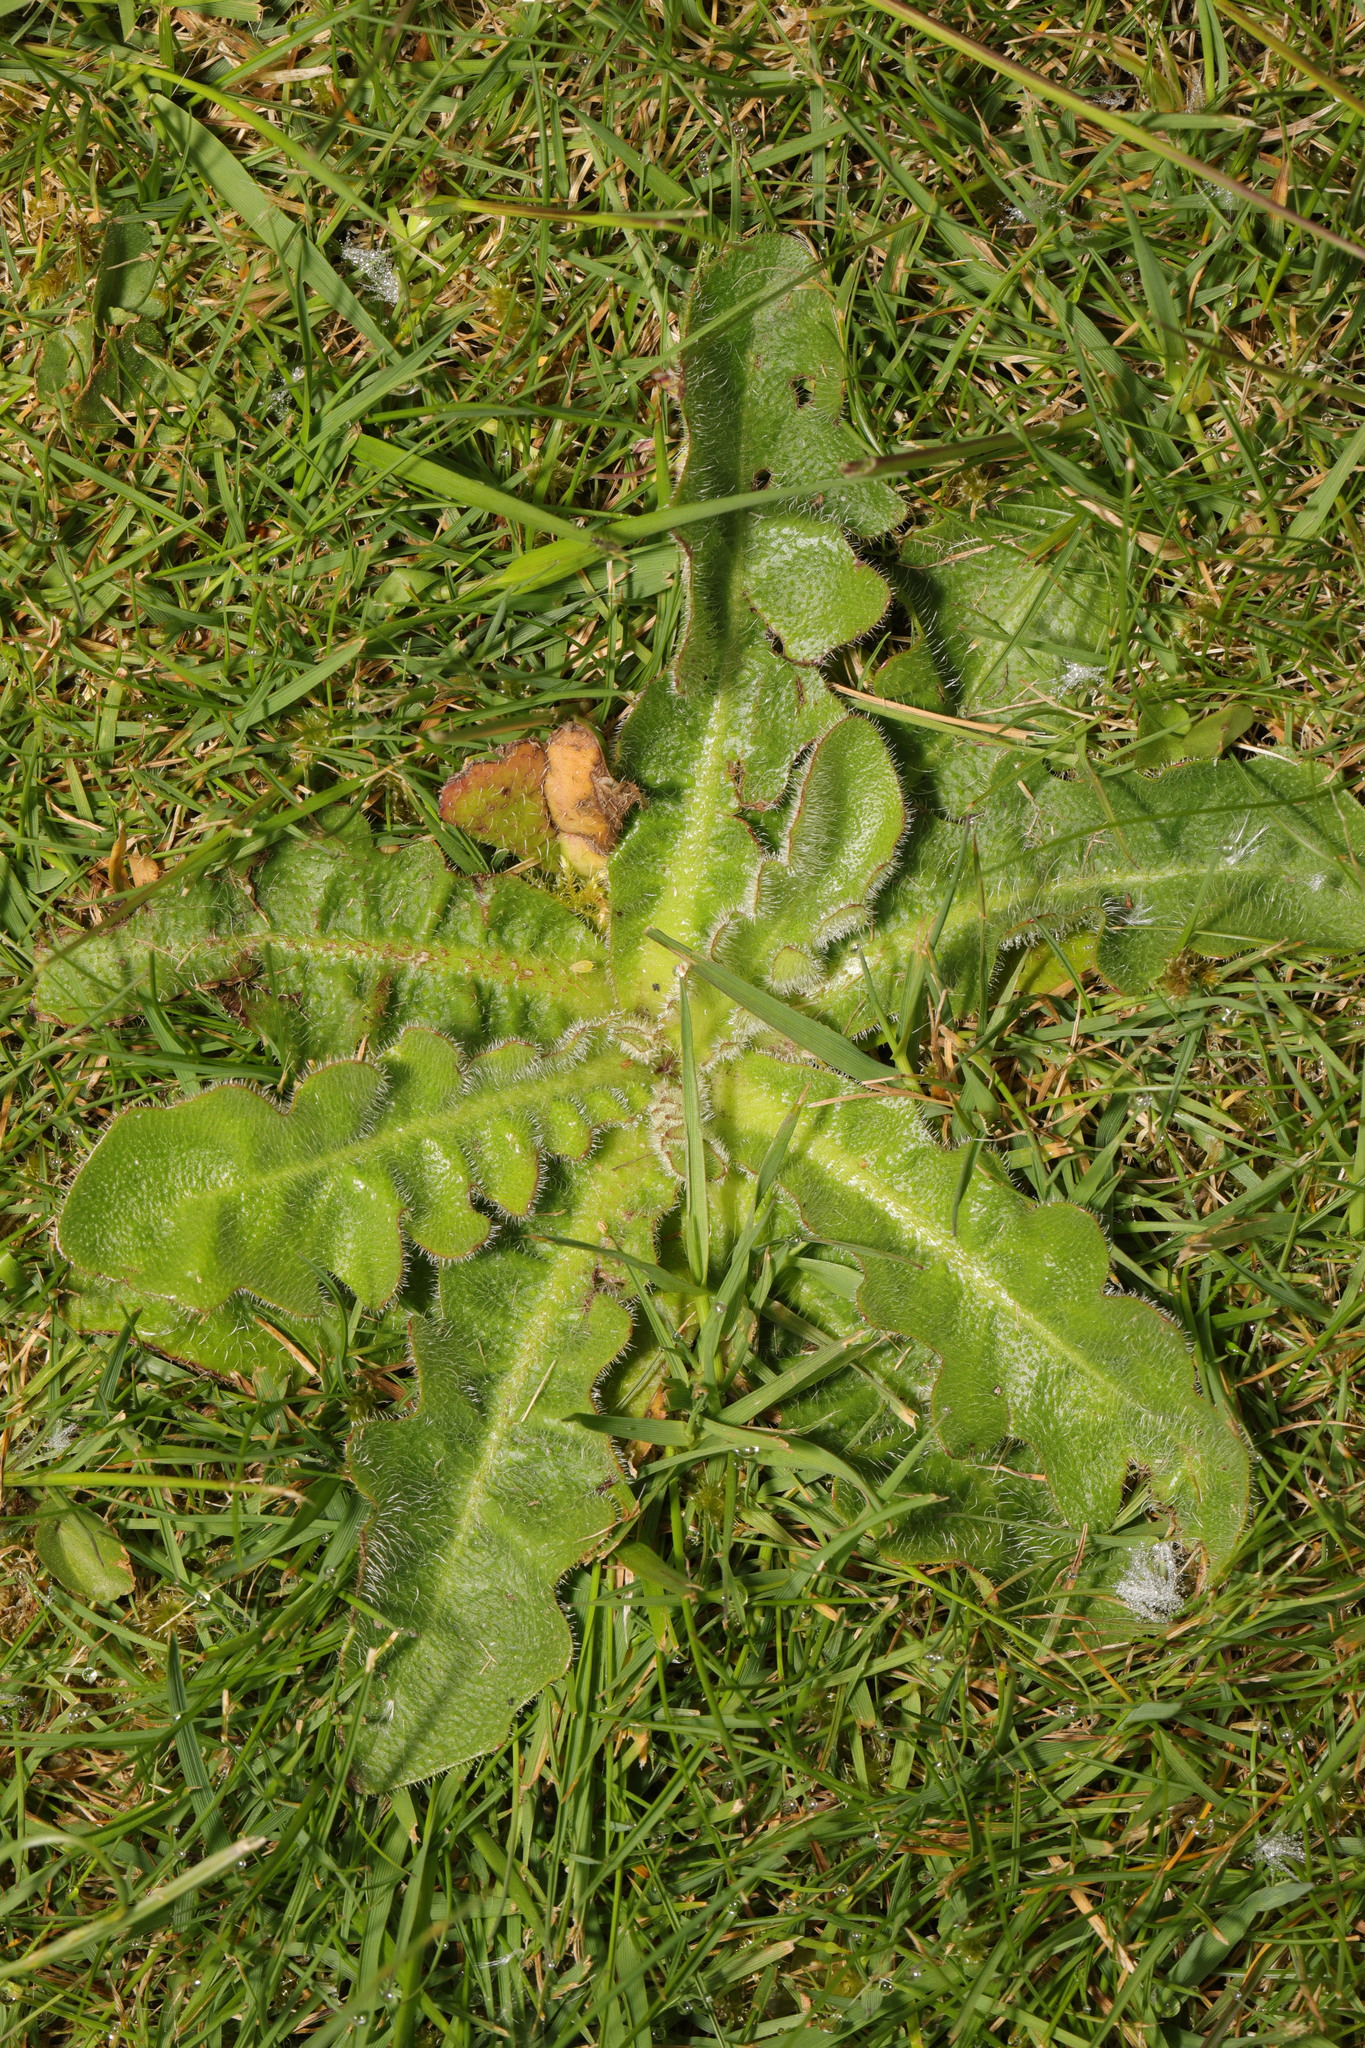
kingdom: Plantae
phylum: Tracheophyta
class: Magnoliopsida
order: Asterales
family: Asteraceae
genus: Hypochaeris
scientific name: Hypochaeris radicata
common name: Flatweed
